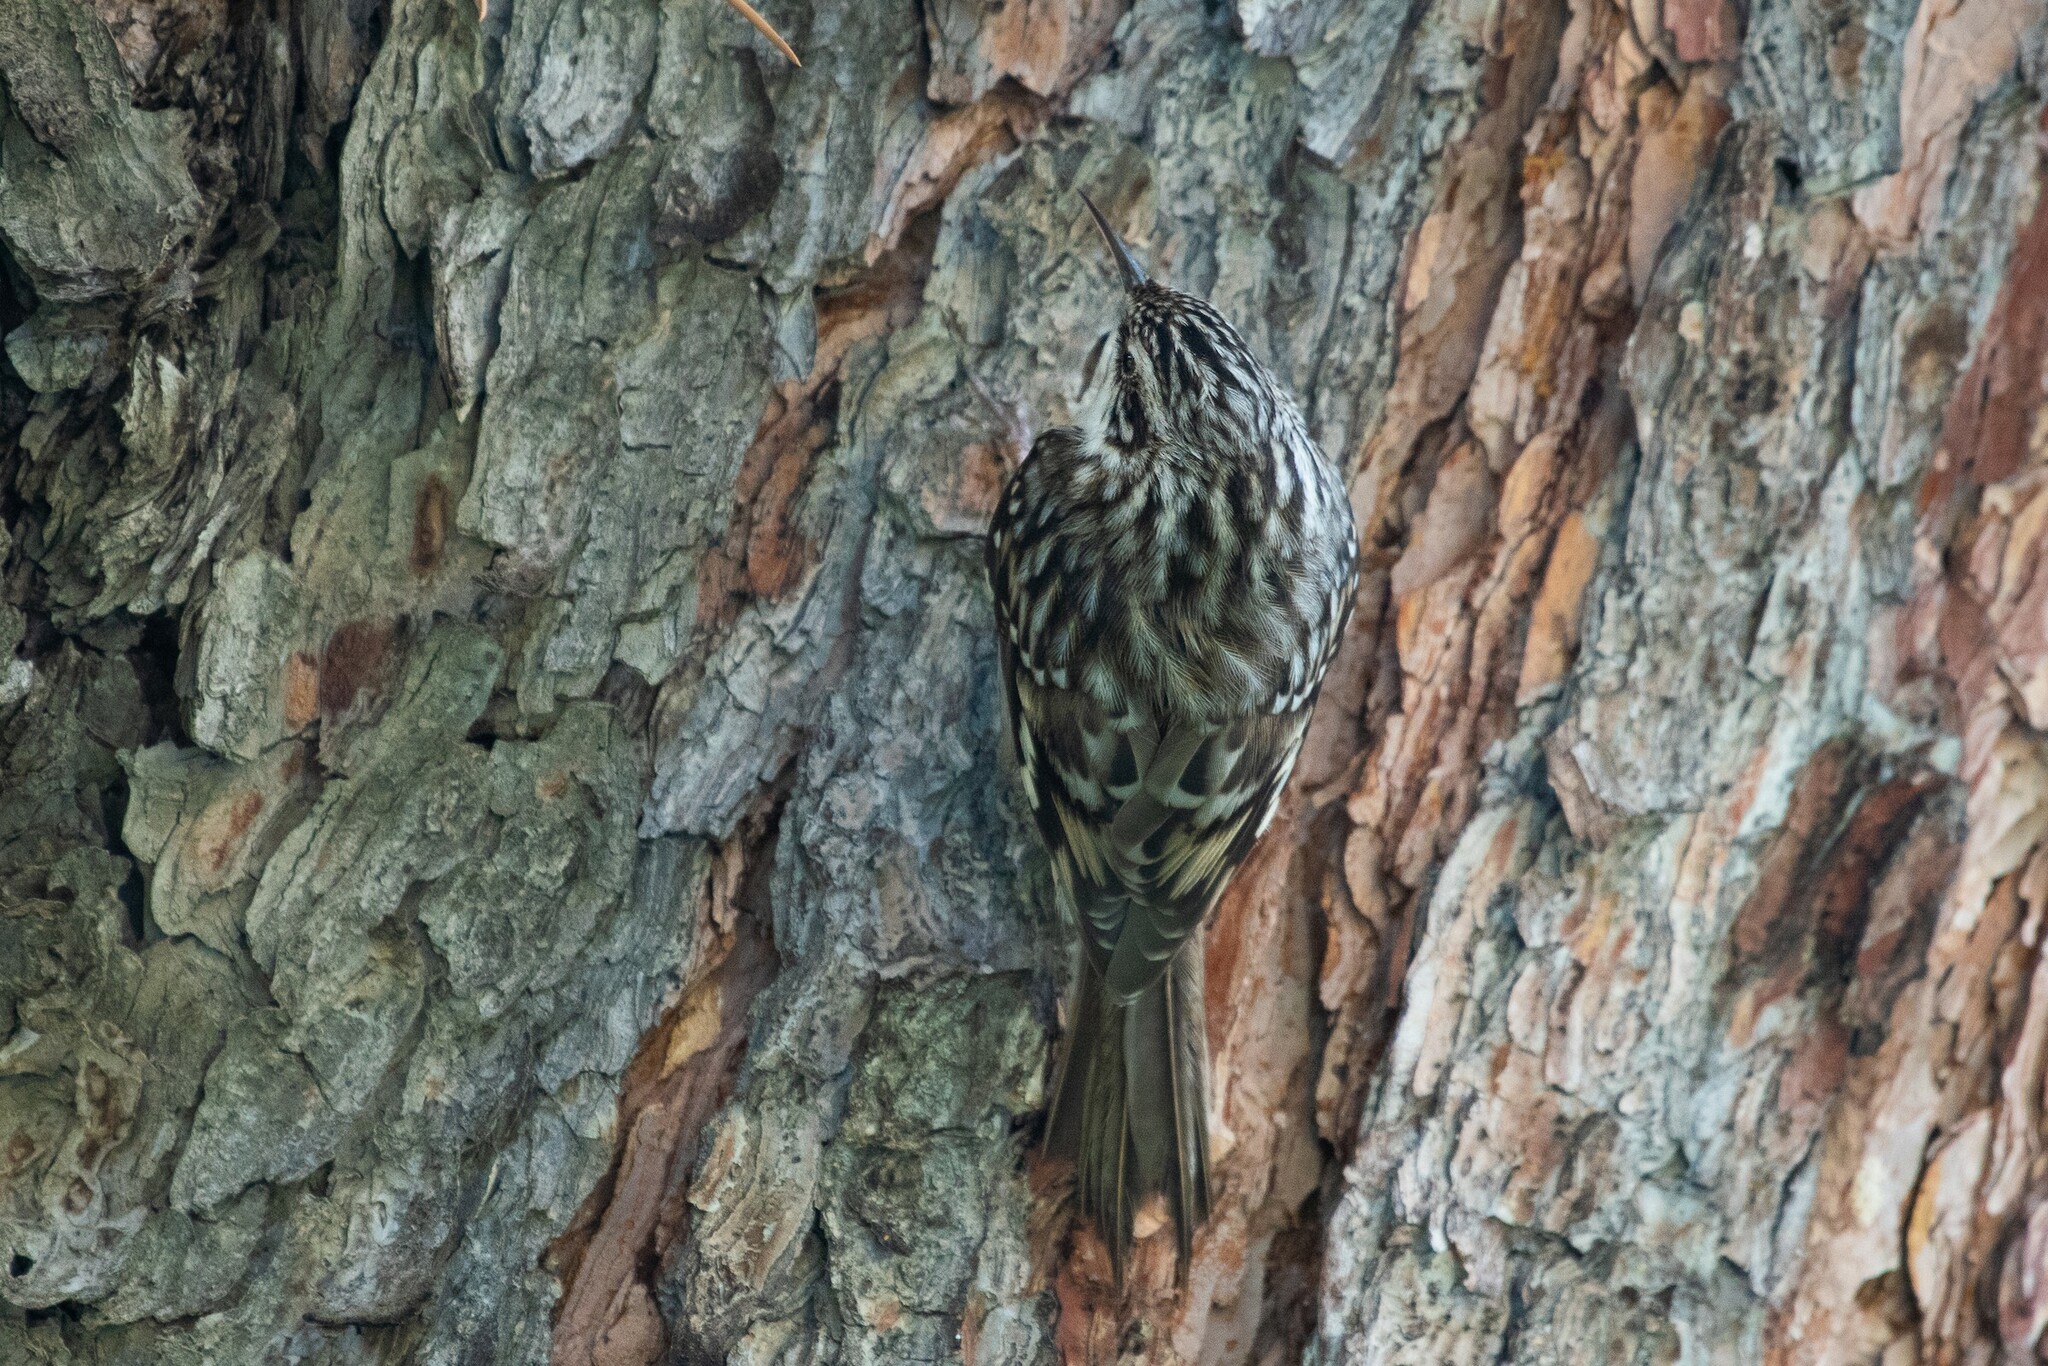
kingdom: Animalia
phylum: Chordata
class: Aves
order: Passeriformes
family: Certhiidae
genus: Certhia
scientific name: Certhia americana
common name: Brown creeper
